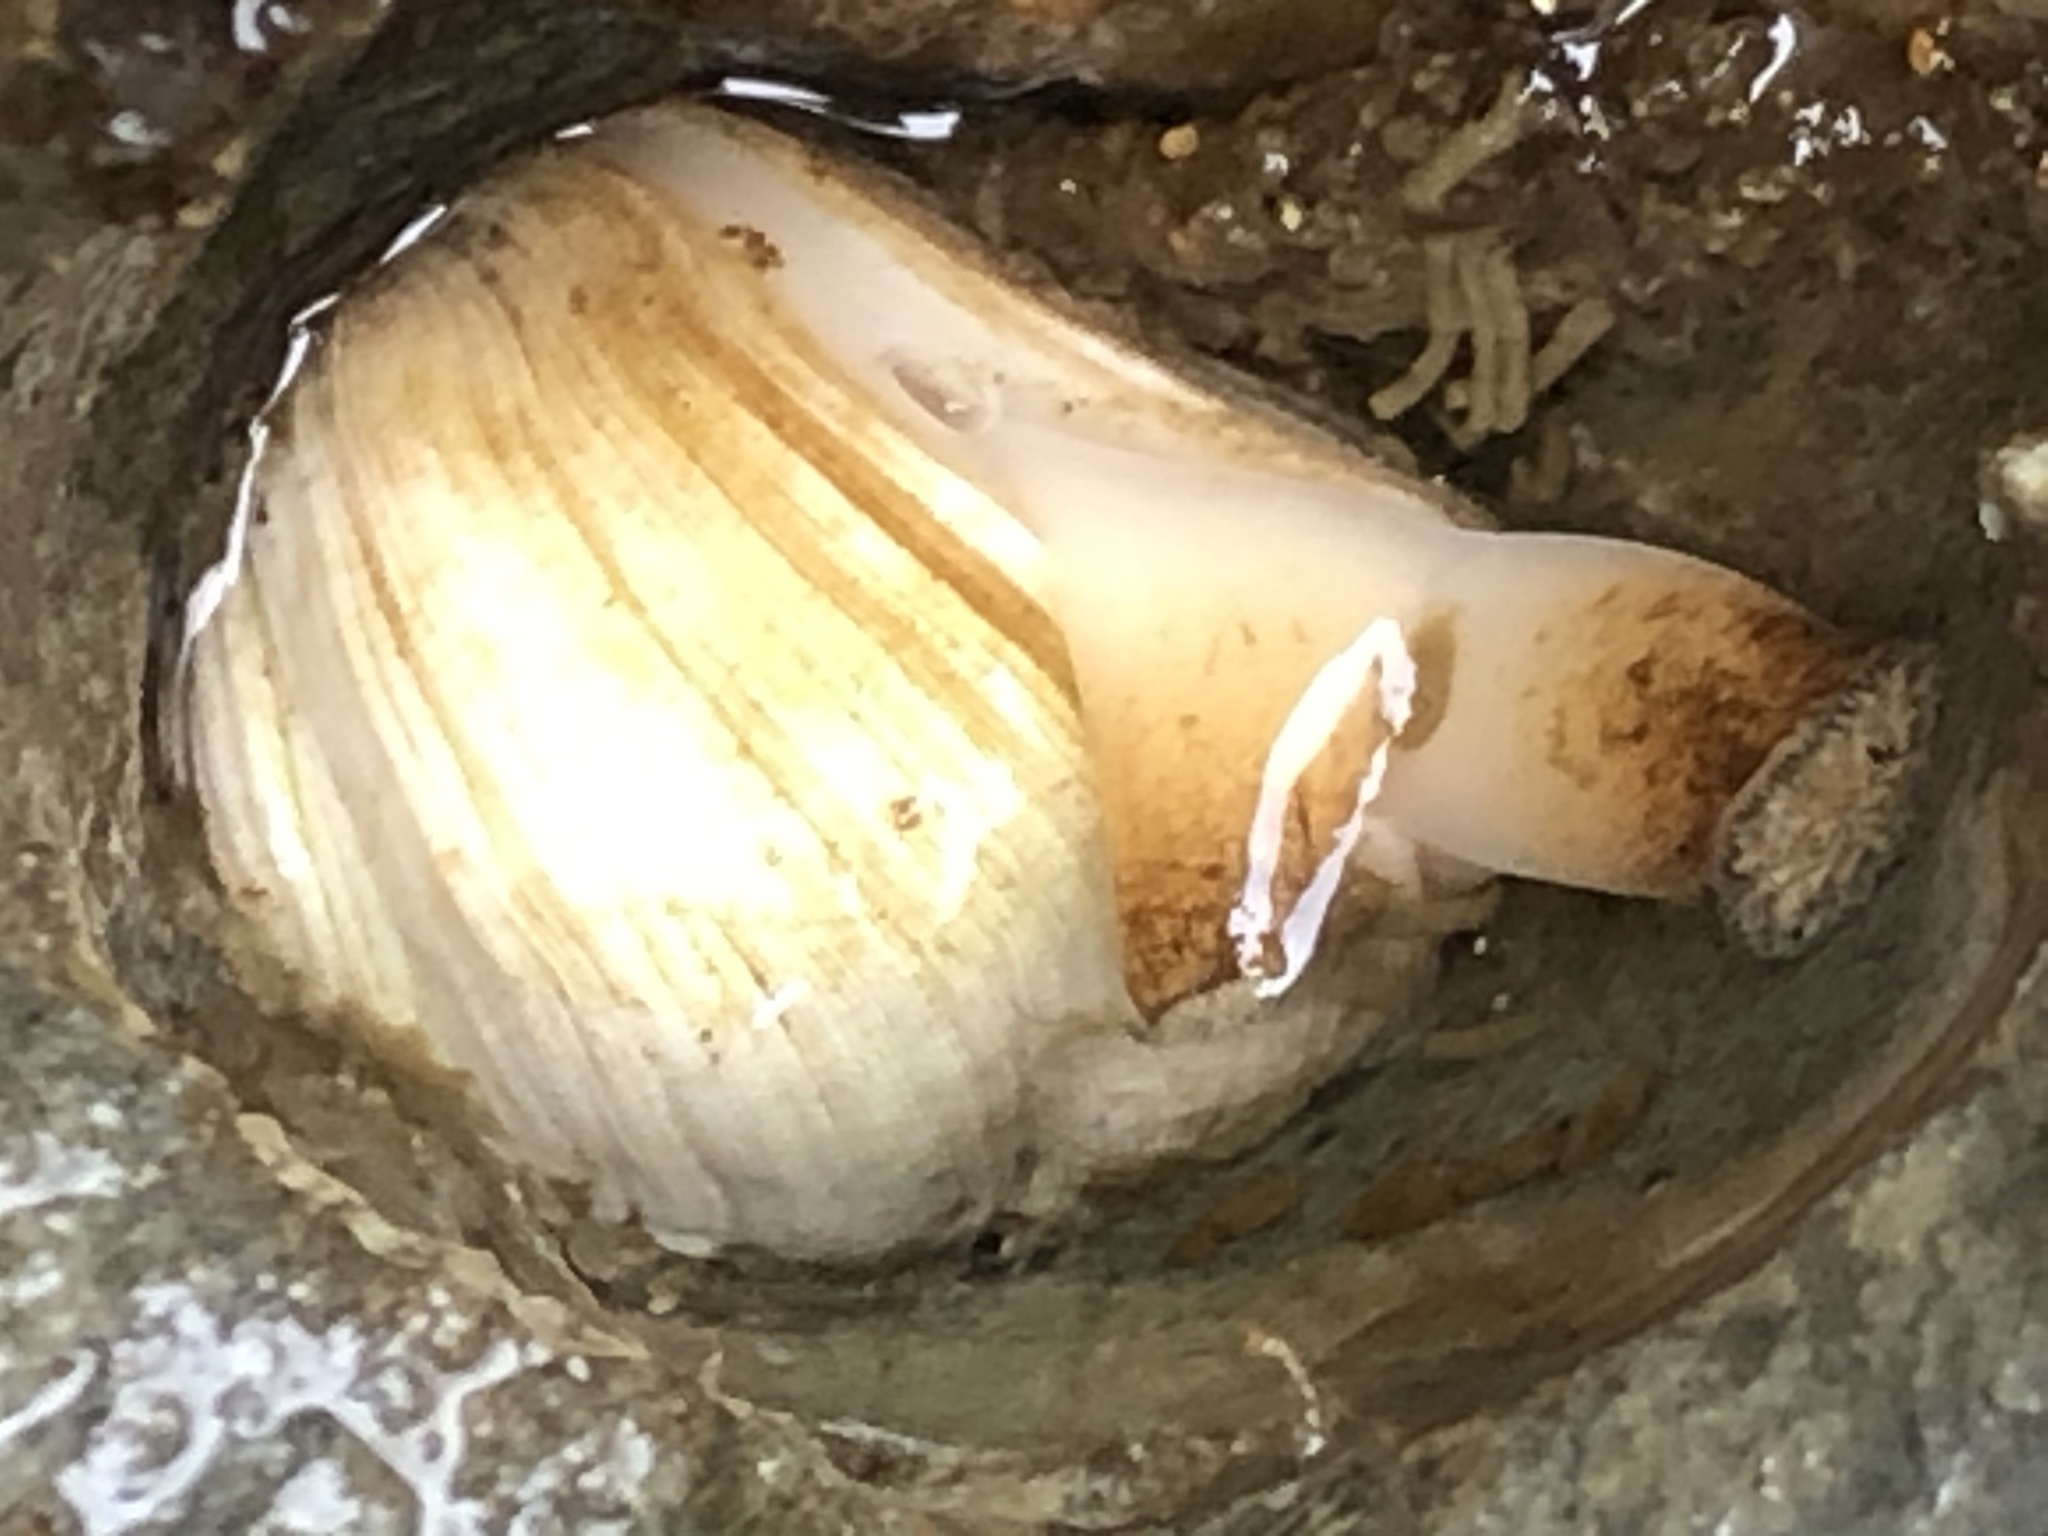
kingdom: Animalia
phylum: Mollusca
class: Bivalvia
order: Venerida
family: Veneridae
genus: Petricola
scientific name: Petricola carditoides
